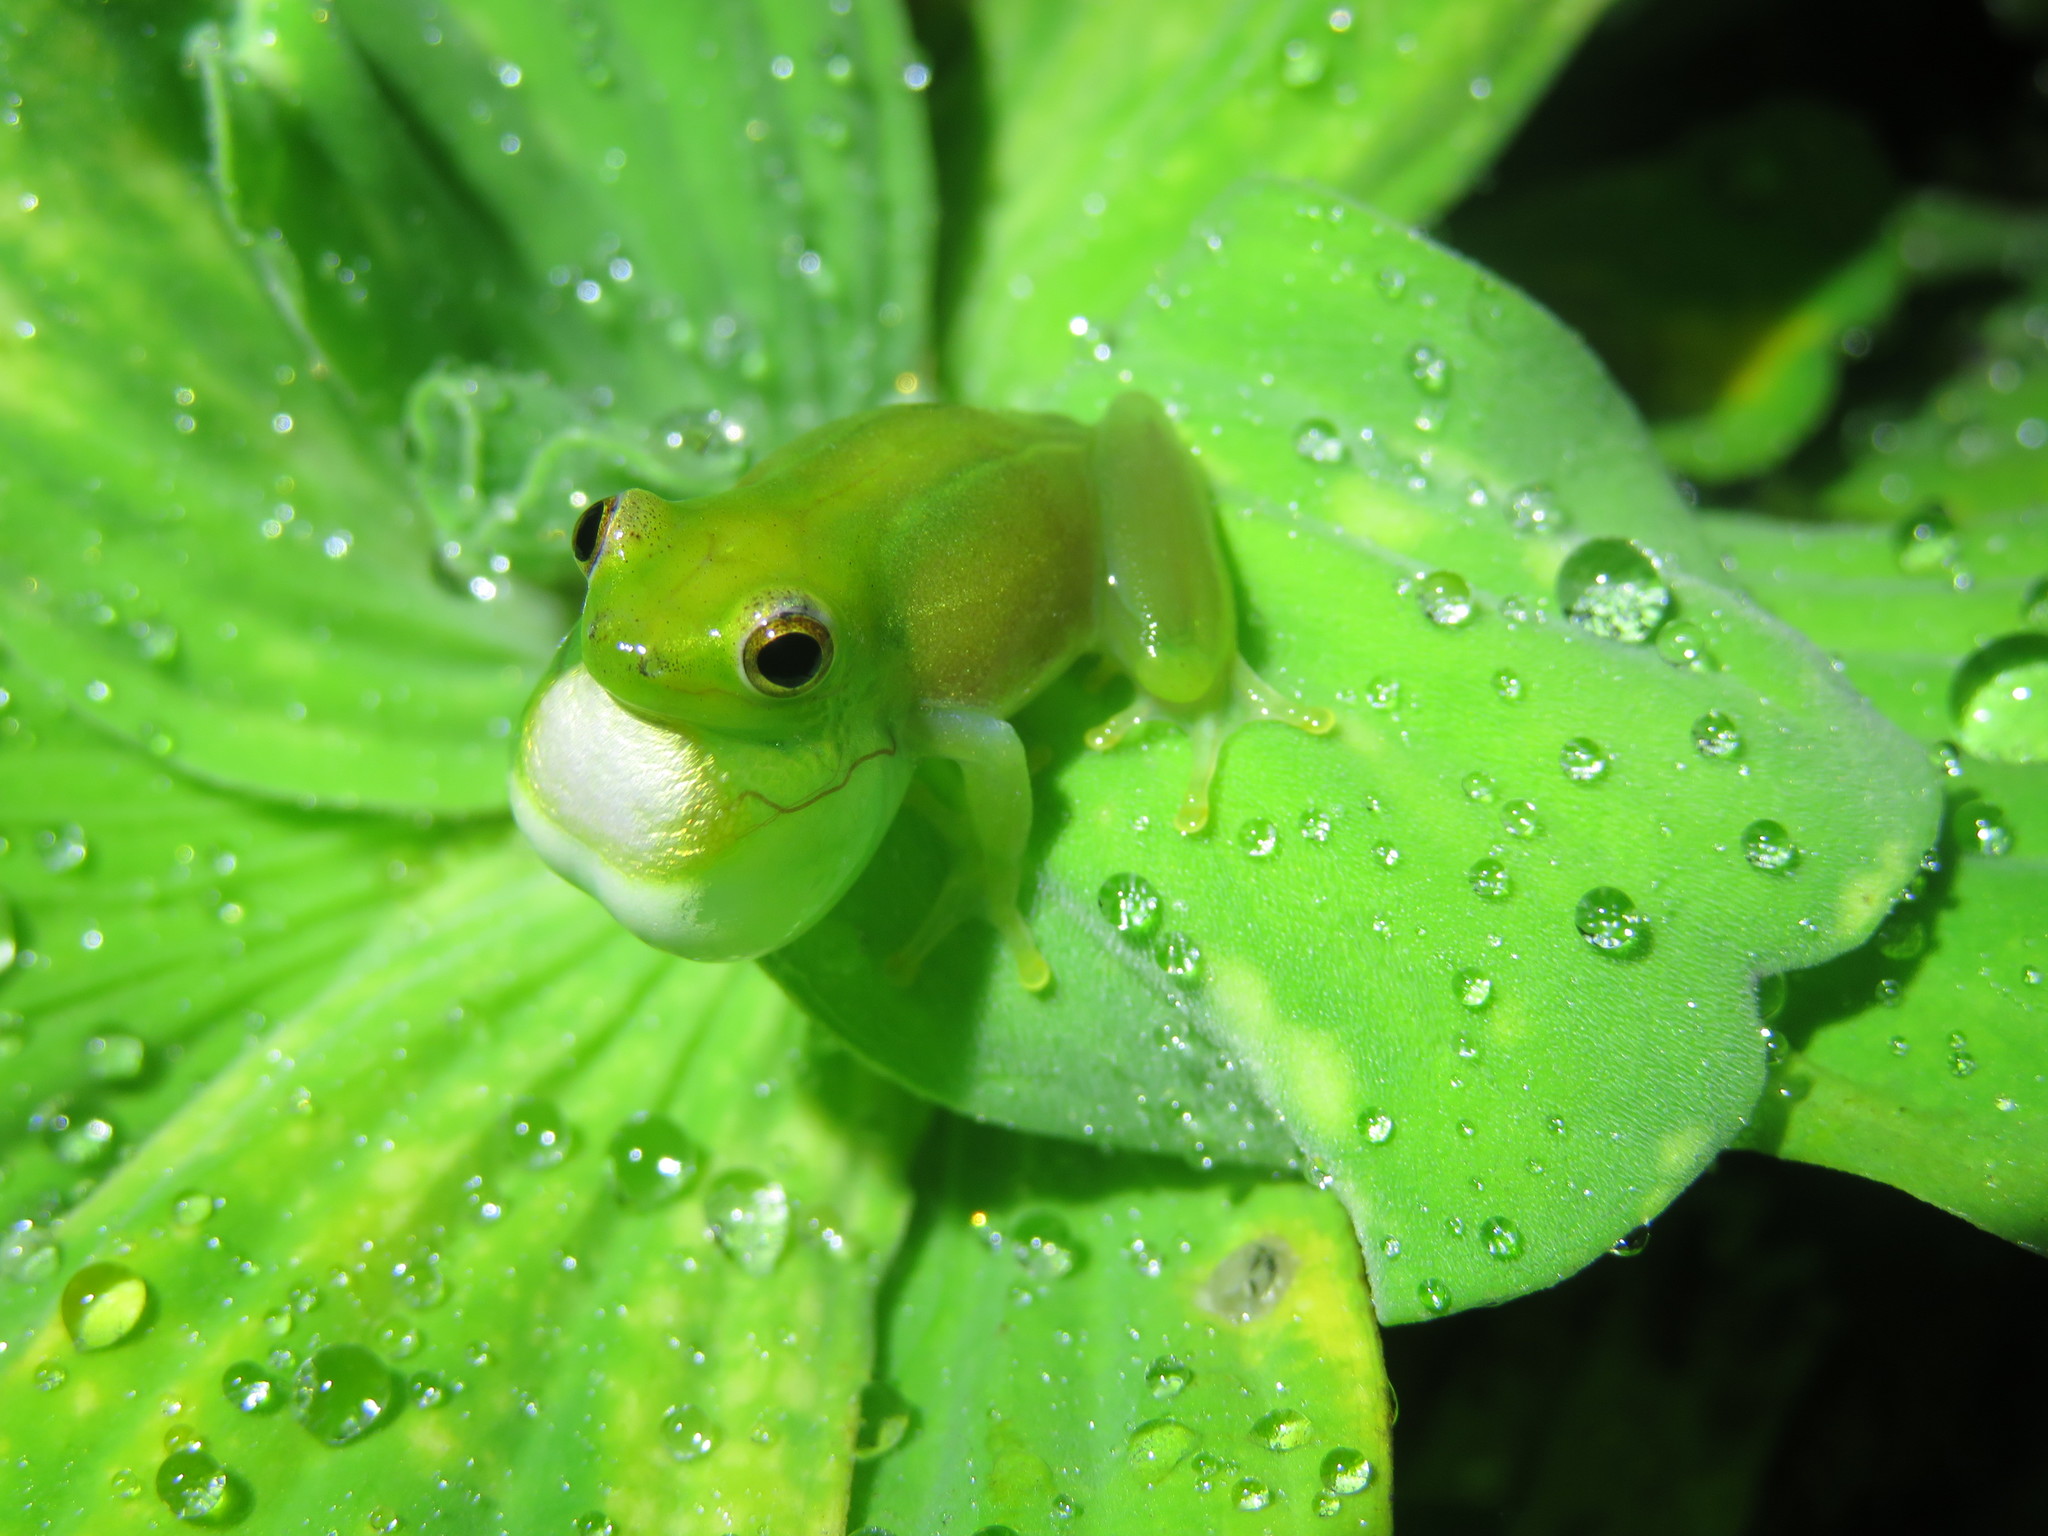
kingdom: Animalia
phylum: Chordata
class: Amphibia
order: Anura
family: Hyperoliidae
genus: Hyperolius
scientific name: Hyperolius pusillus
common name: Water lily reed frog
